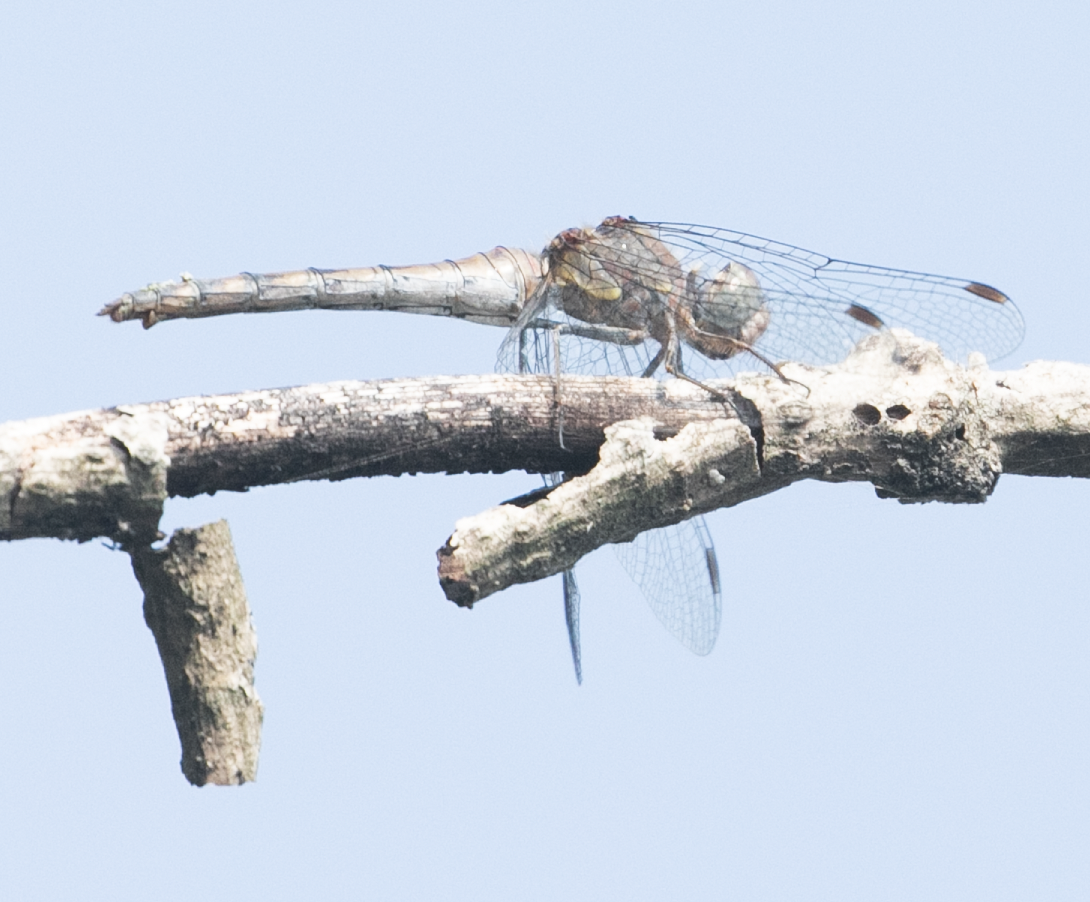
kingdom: Animalia
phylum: Arthropoda
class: Insecta
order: Odonata
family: Libellulidae
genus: Sympetrum
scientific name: Sympetrum striolatum
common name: Common darter
